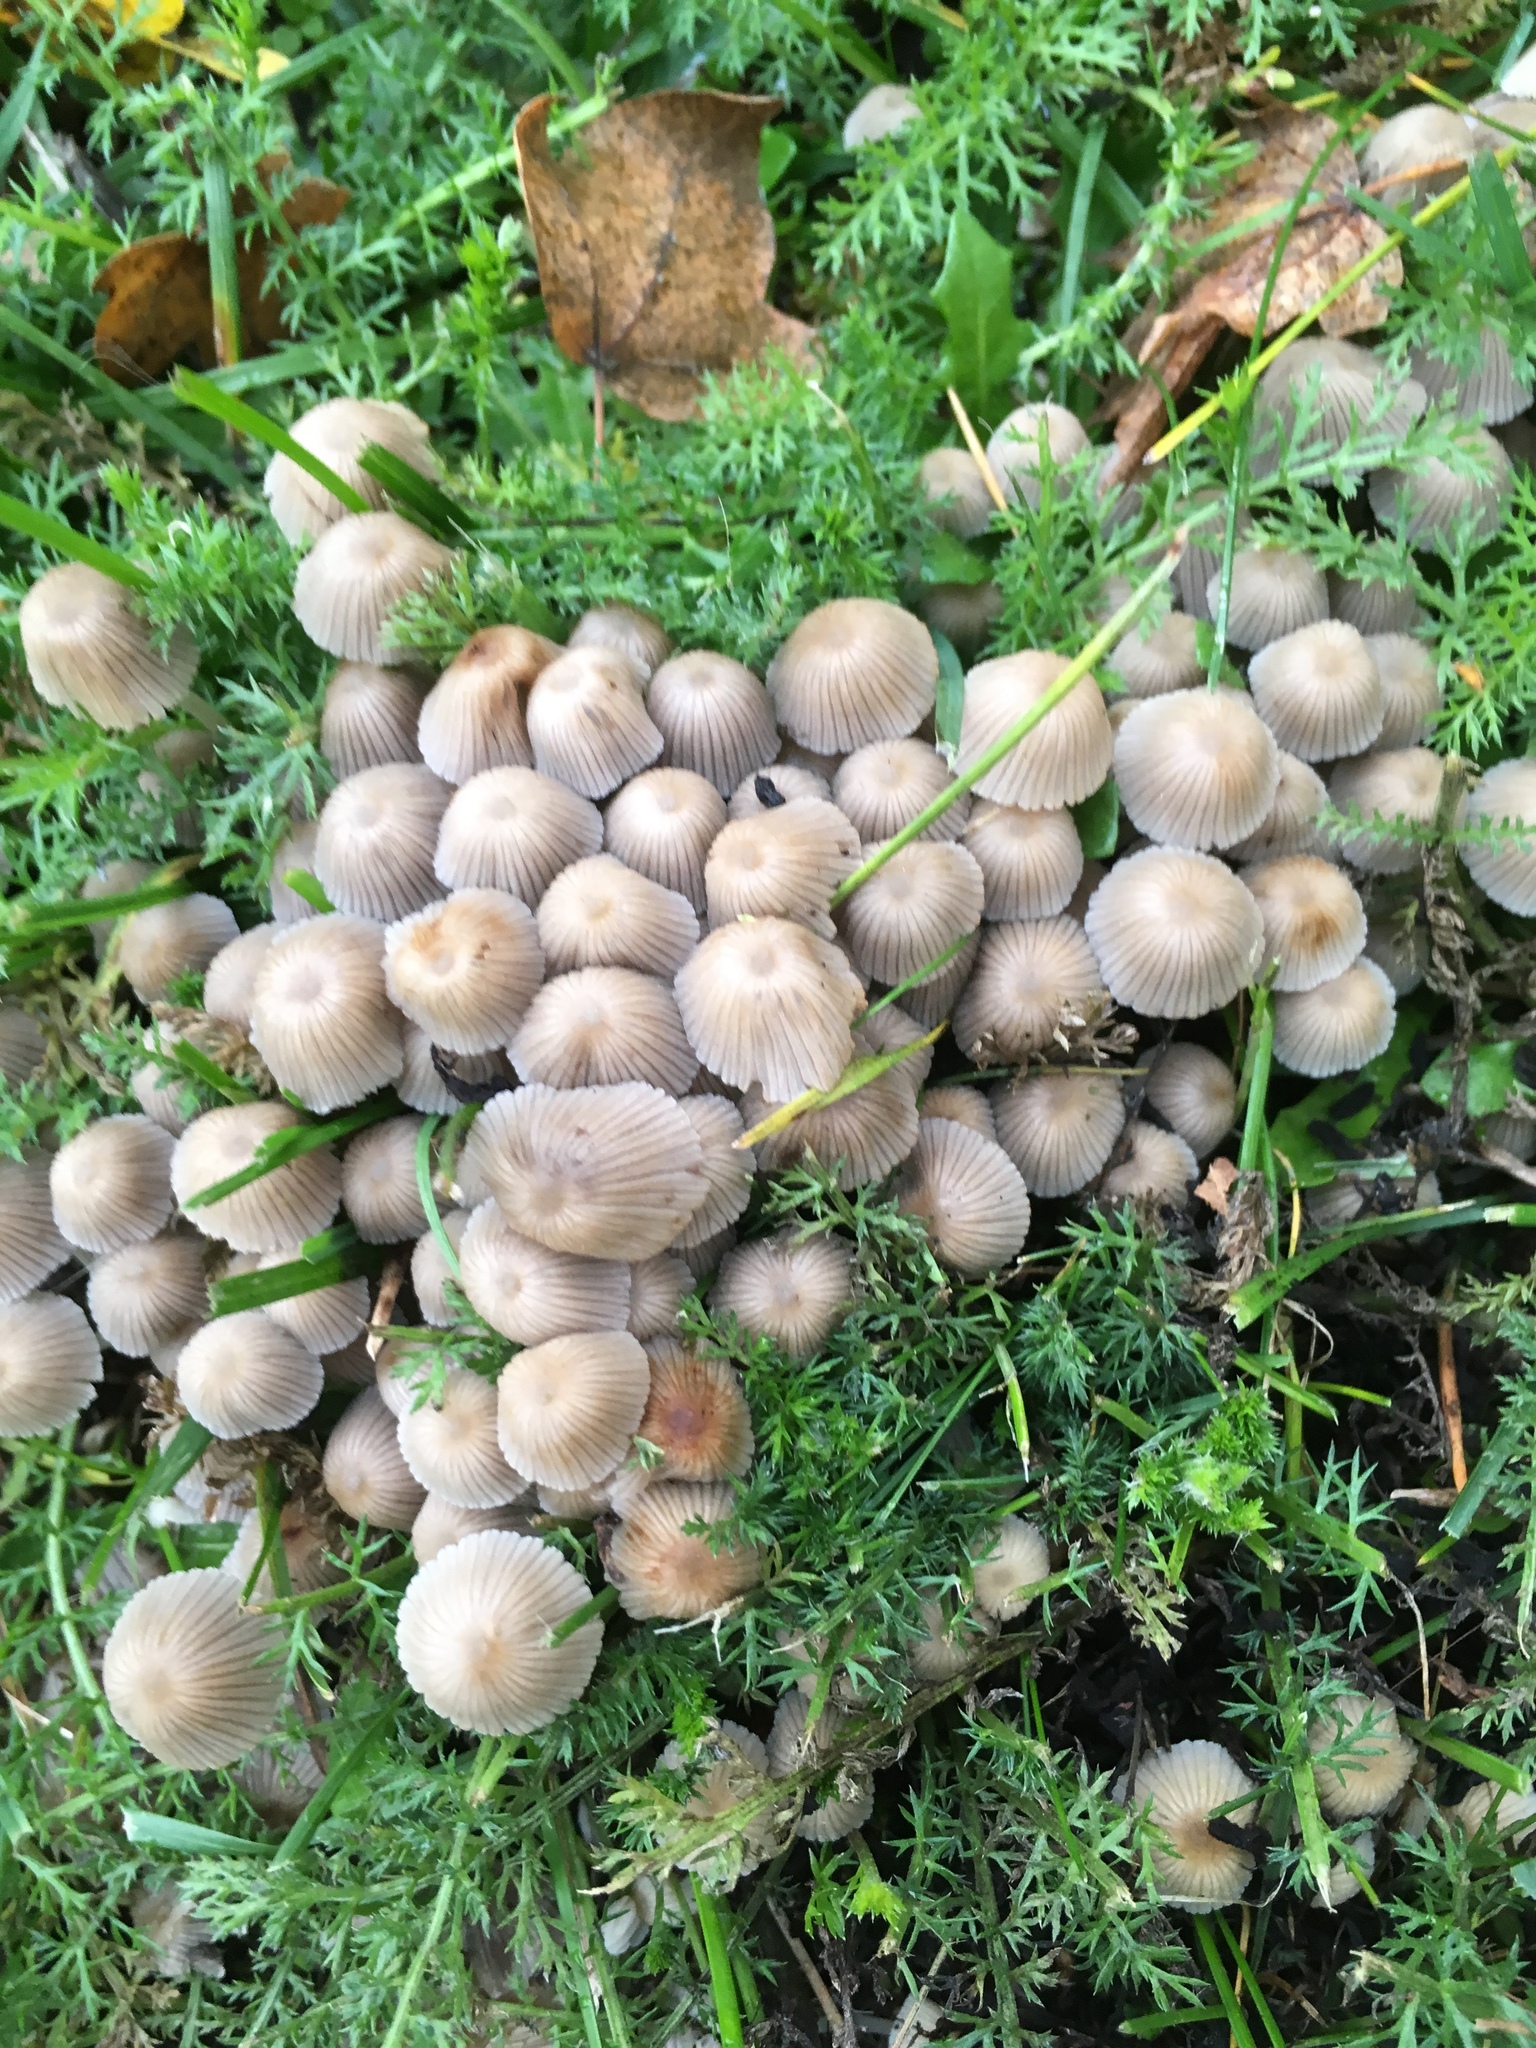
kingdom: Fungi
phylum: Basidiomycota
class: Agaricomycetes
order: Agaricales
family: Psathyrellaceae
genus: Coprinellus
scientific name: Coprinellus disseminatus
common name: Fairies' bonnets
